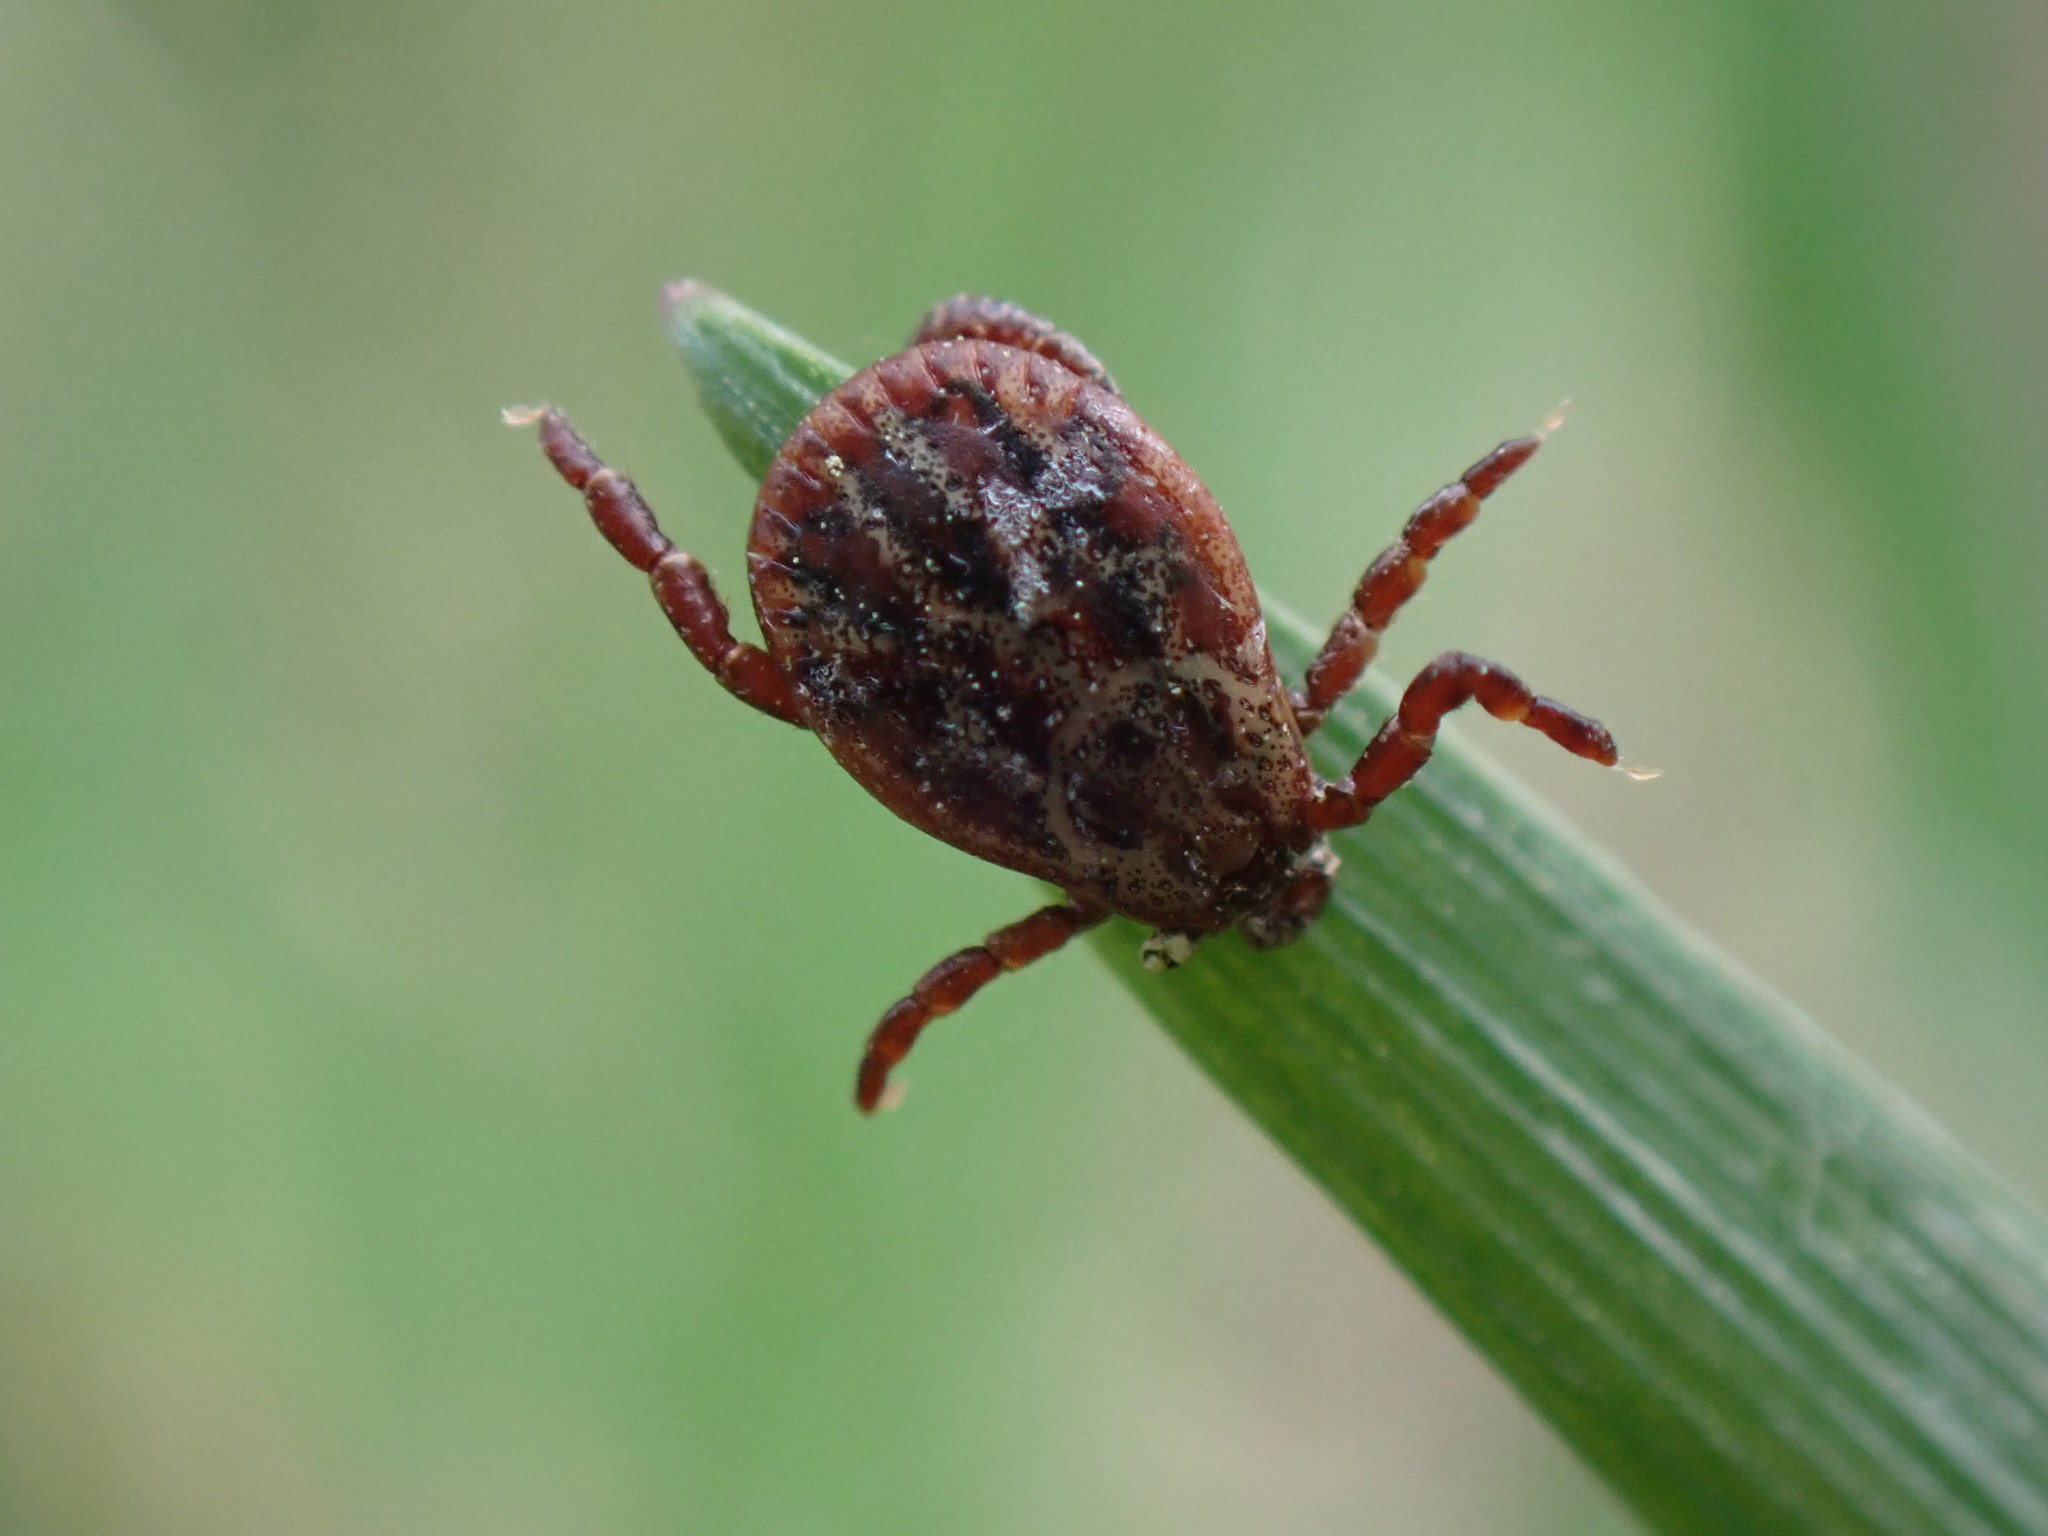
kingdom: Animalia
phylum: Arthropoda
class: Arachnida
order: Ixodida
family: Ixodidae
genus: Dermacentor
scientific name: Dermacentor reticulatus
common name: Ornate cow tick
